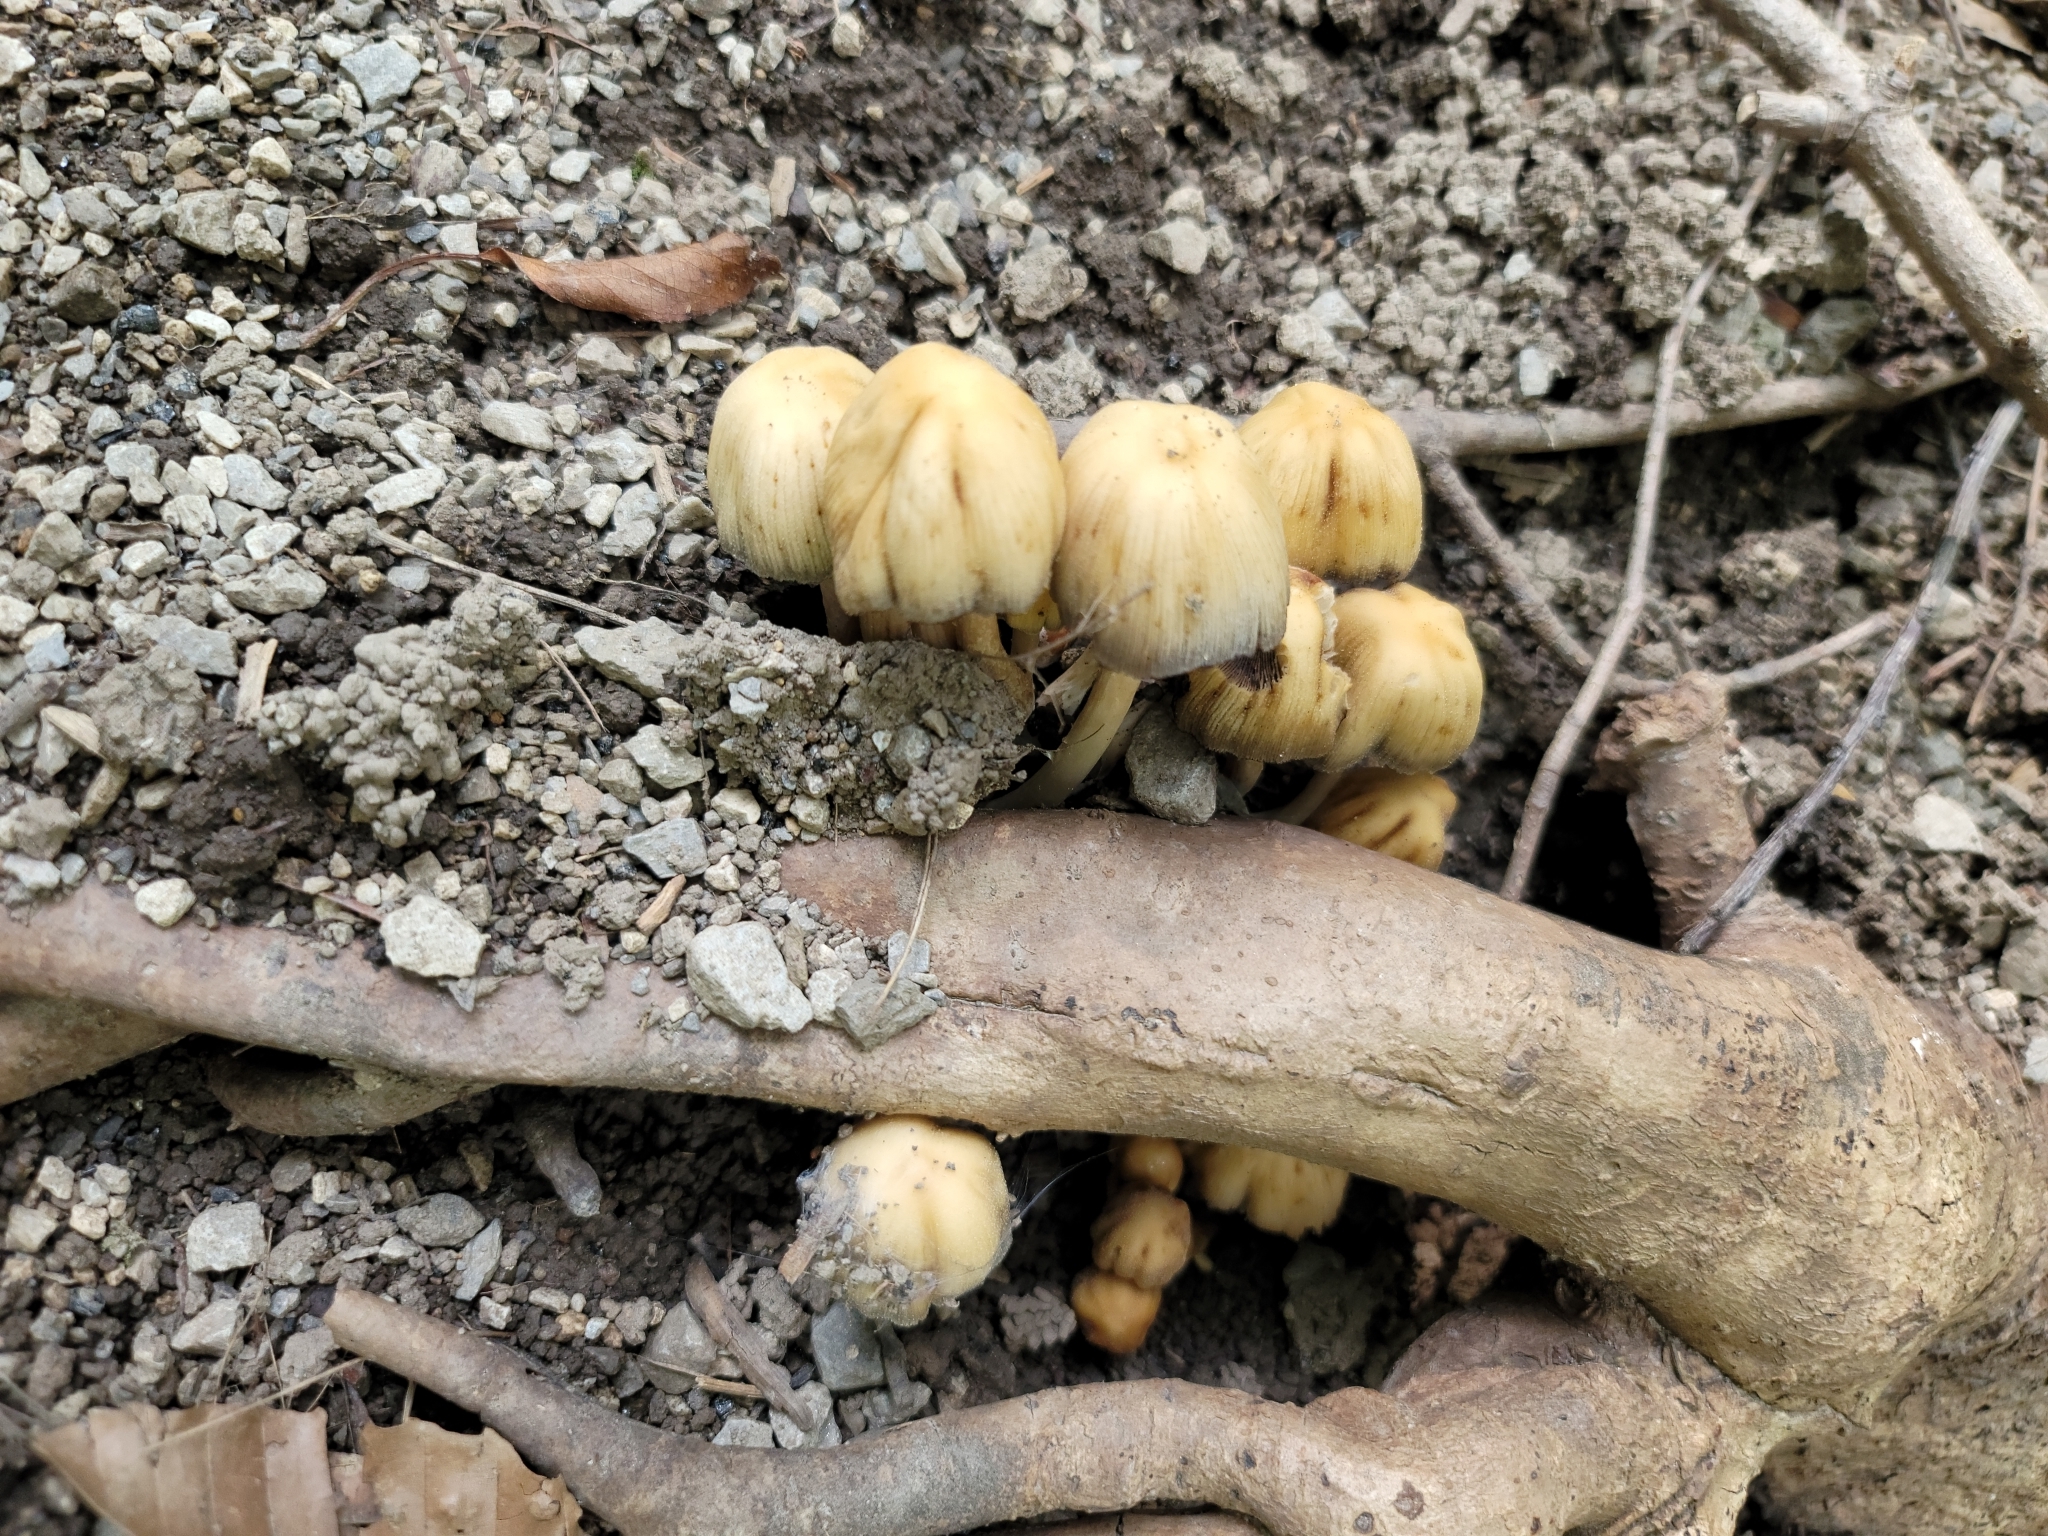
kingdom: Fungi
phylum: Basidiomycota
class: Agaricomycetes
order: Agaricales
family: Psathyrellaceae
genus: Coprinellus
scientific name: Coprinellus micaceus
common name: Glistening ink-cap
